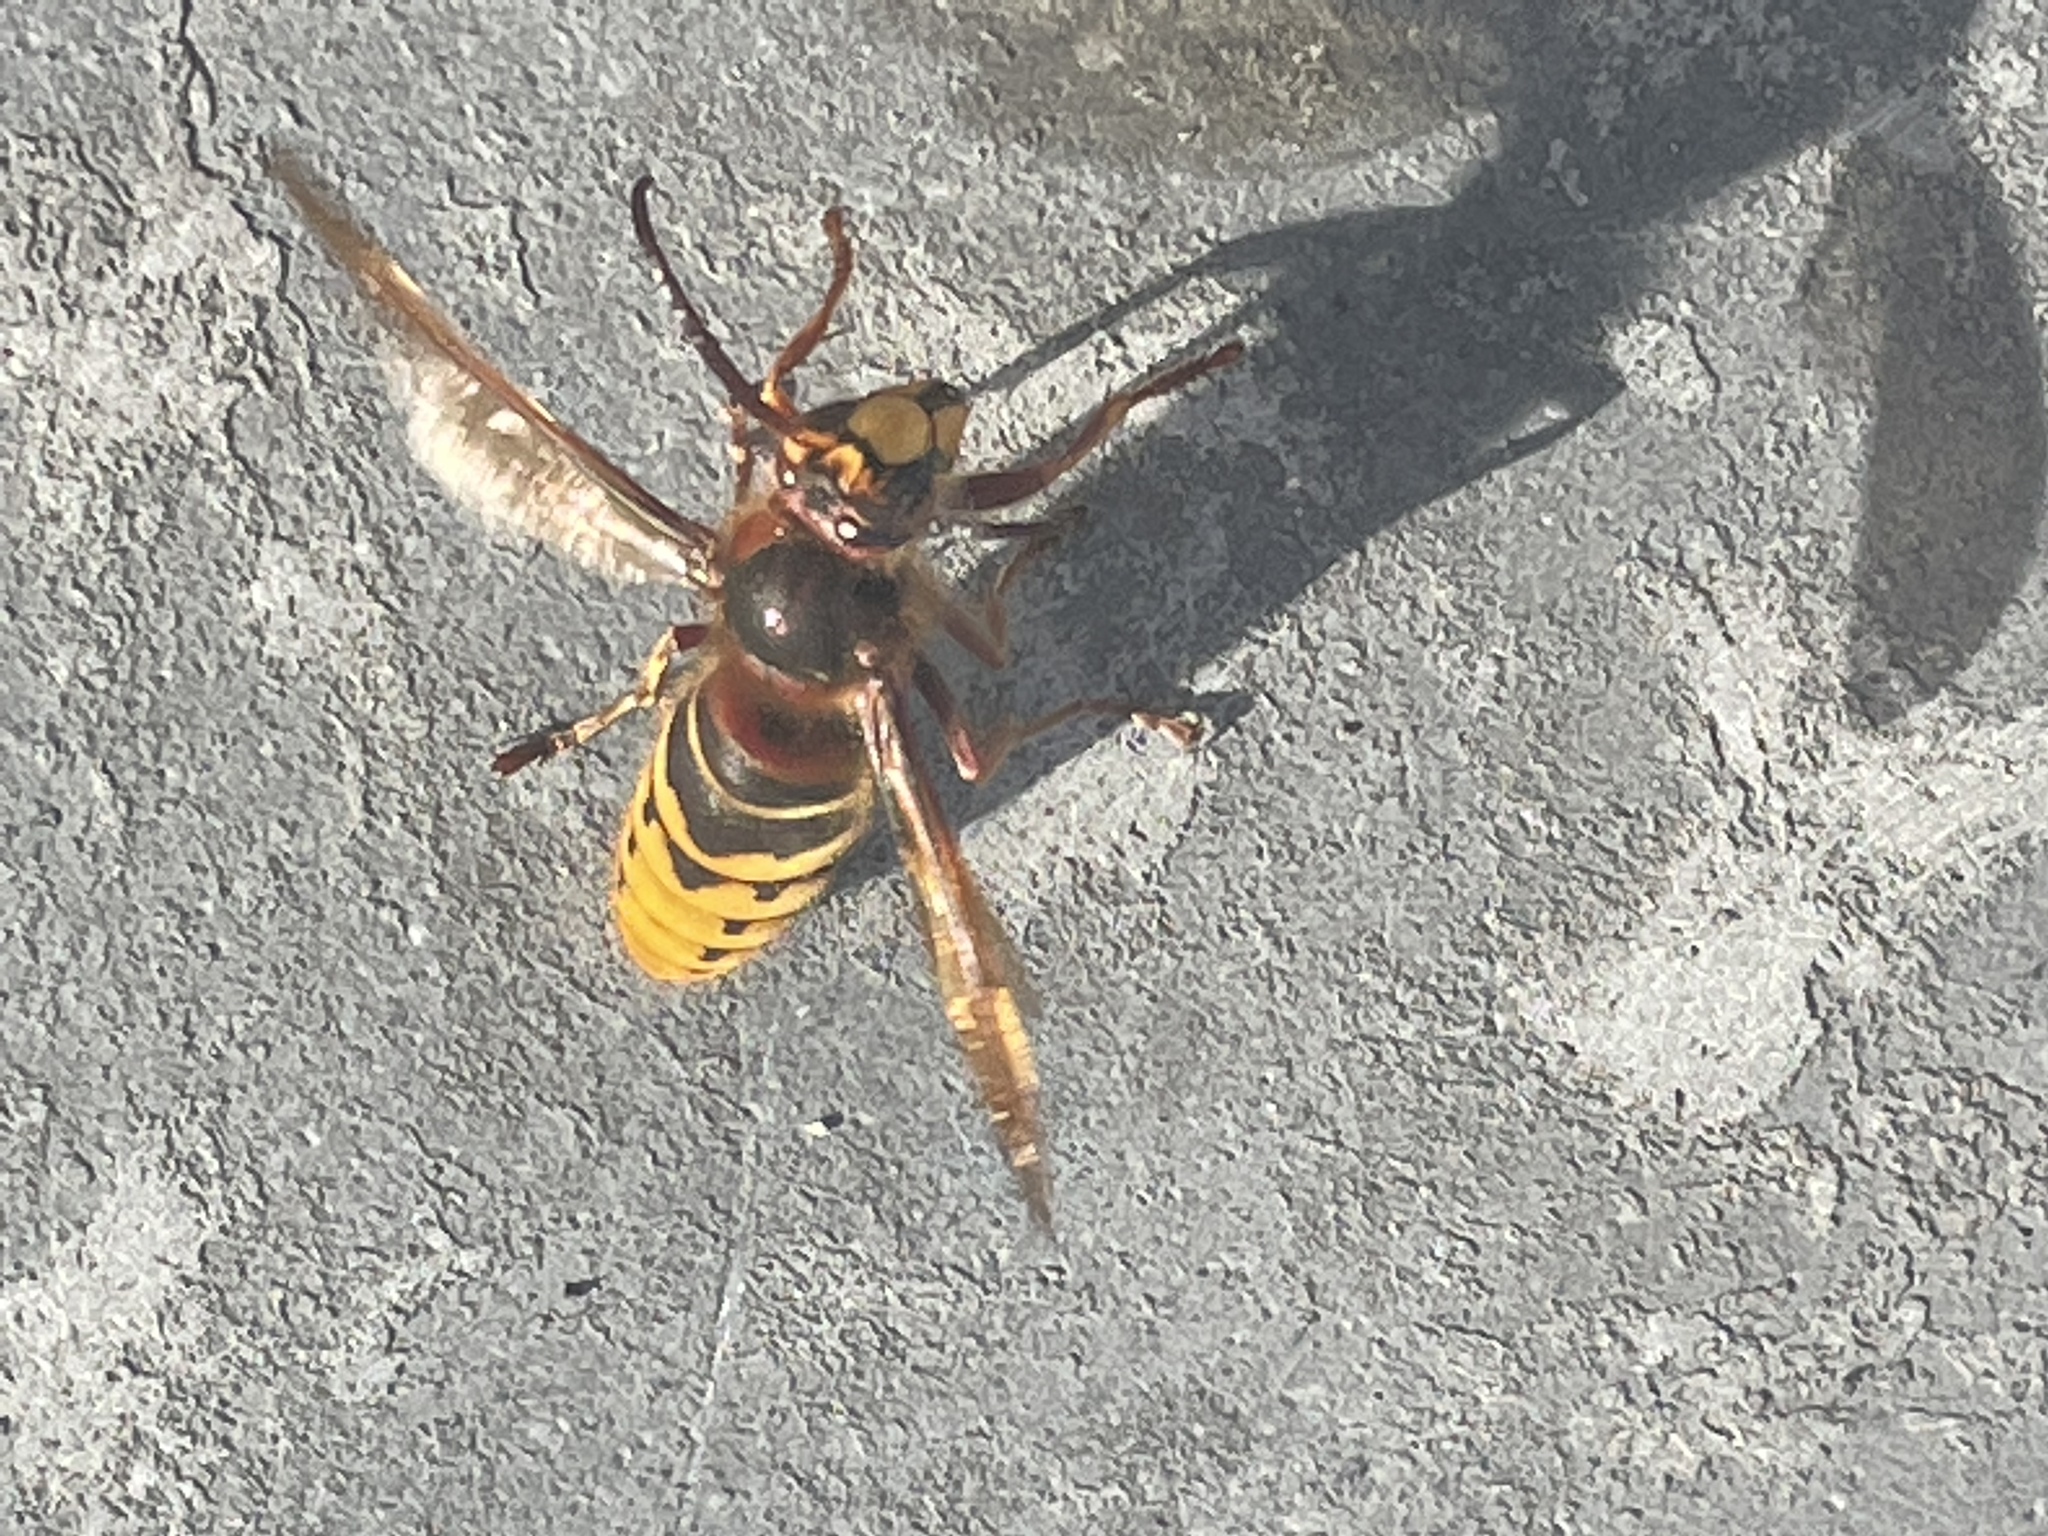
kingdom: Animalia
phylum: Arthropoda
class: Insecta
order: Hymenoptera
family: Vespidae
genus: Vespa
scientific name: Vespa crabro
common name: Hornet
